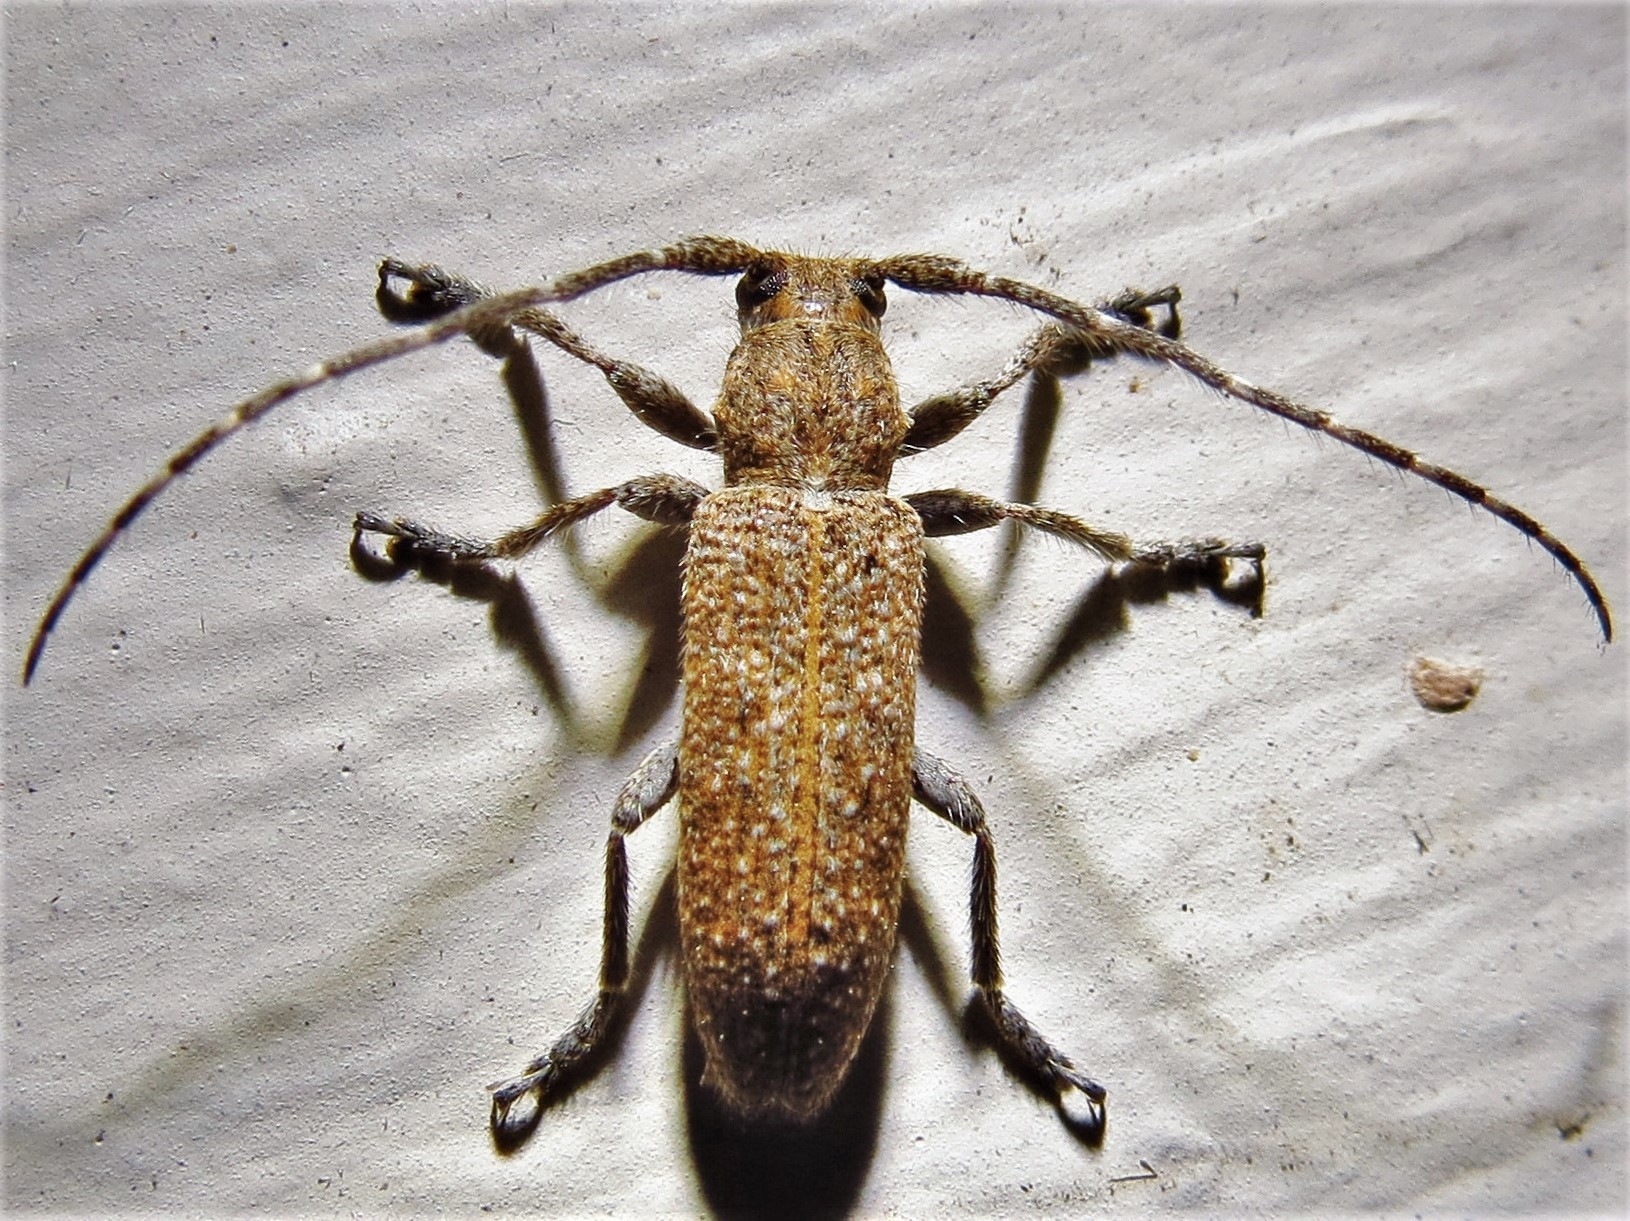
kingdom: Animalia
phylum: Arthropoda
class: Insecta
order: Coleoptera
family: Cerambycidae
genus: Ataxia
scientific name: Ataxia hubbardi
